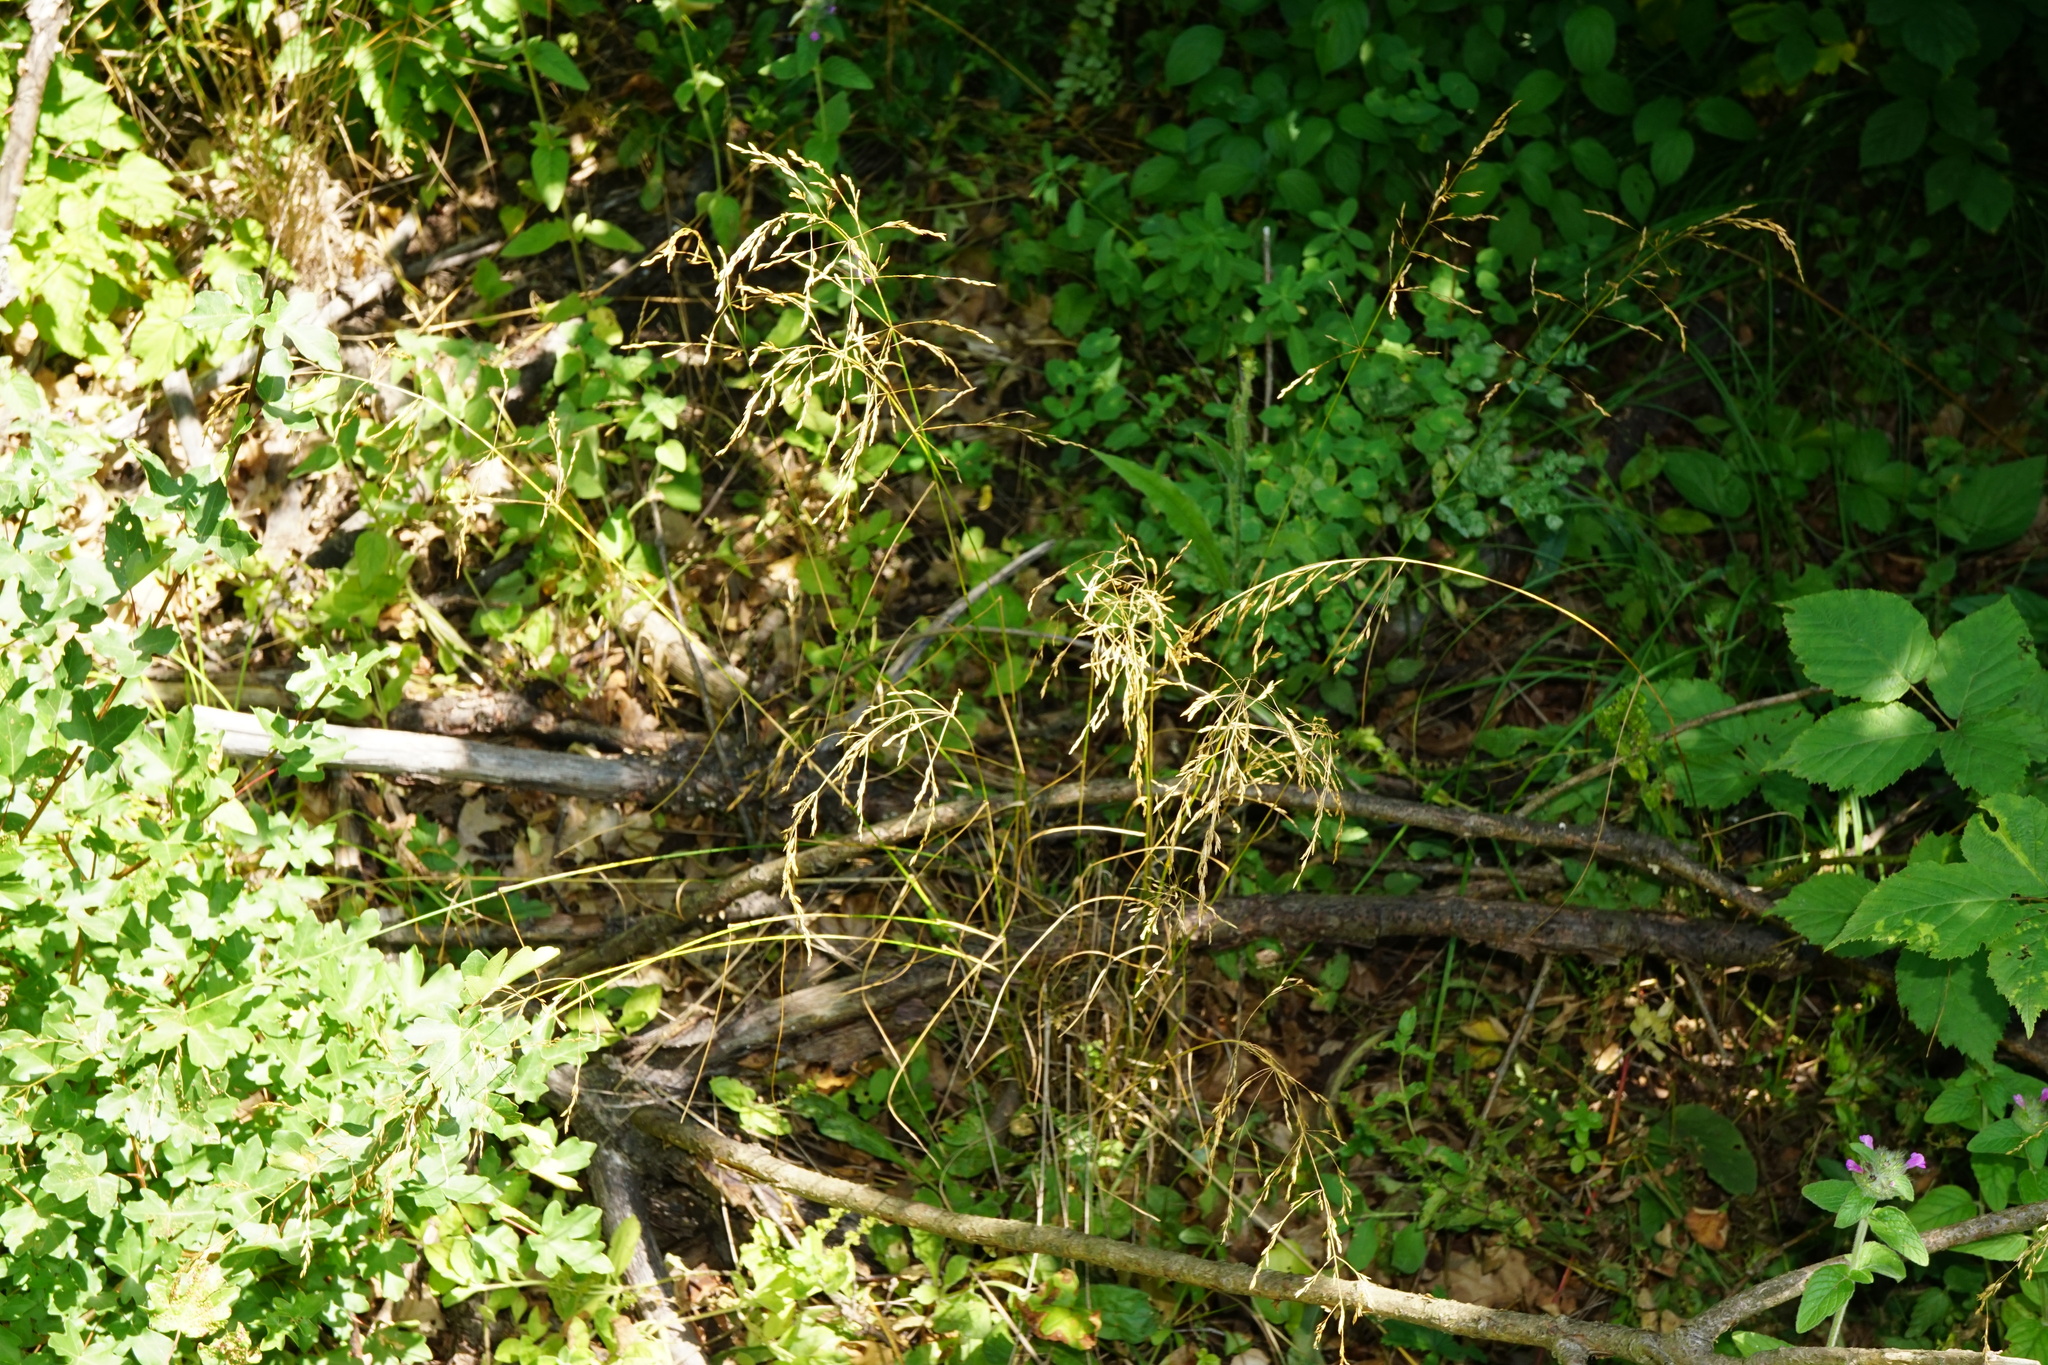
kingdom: Plantae
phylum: Tracheophyta
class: Liliopsida
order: Poales
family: Poaceae
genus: Poa
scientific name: Poa nemoralis
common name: Wood bluegrass
